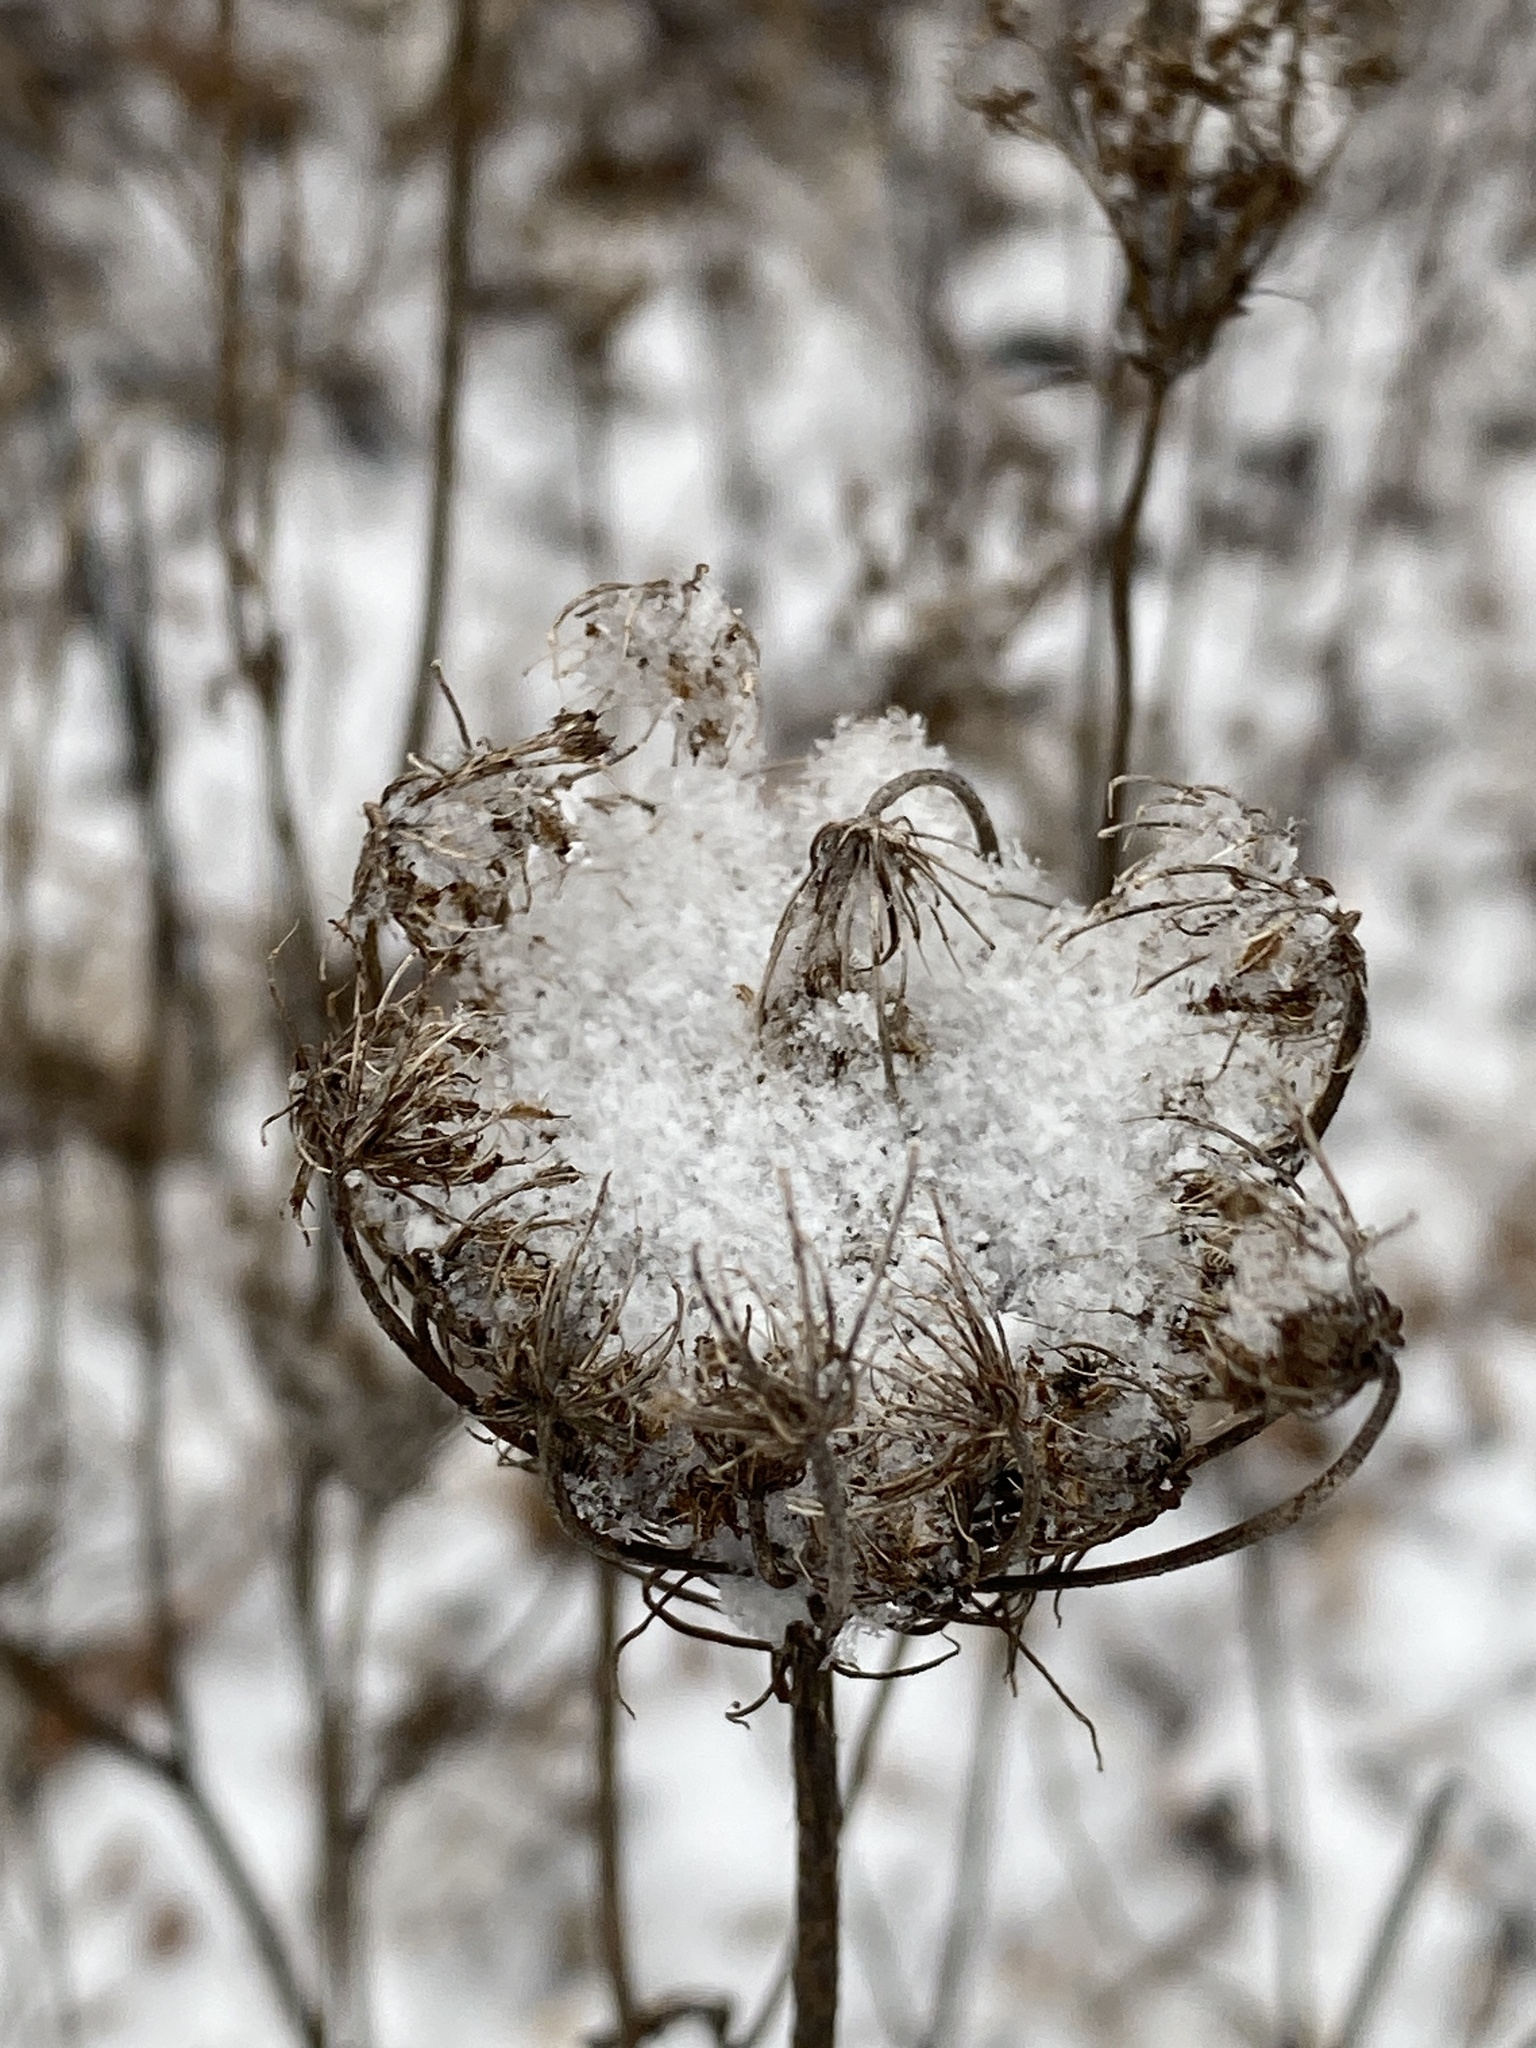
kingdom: Plantae
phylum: Tracheophyta
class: Magnoliopsida
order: Apiales
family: Apiaceae
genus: Daucus
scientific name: Daucus carota
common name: Wild carrot
